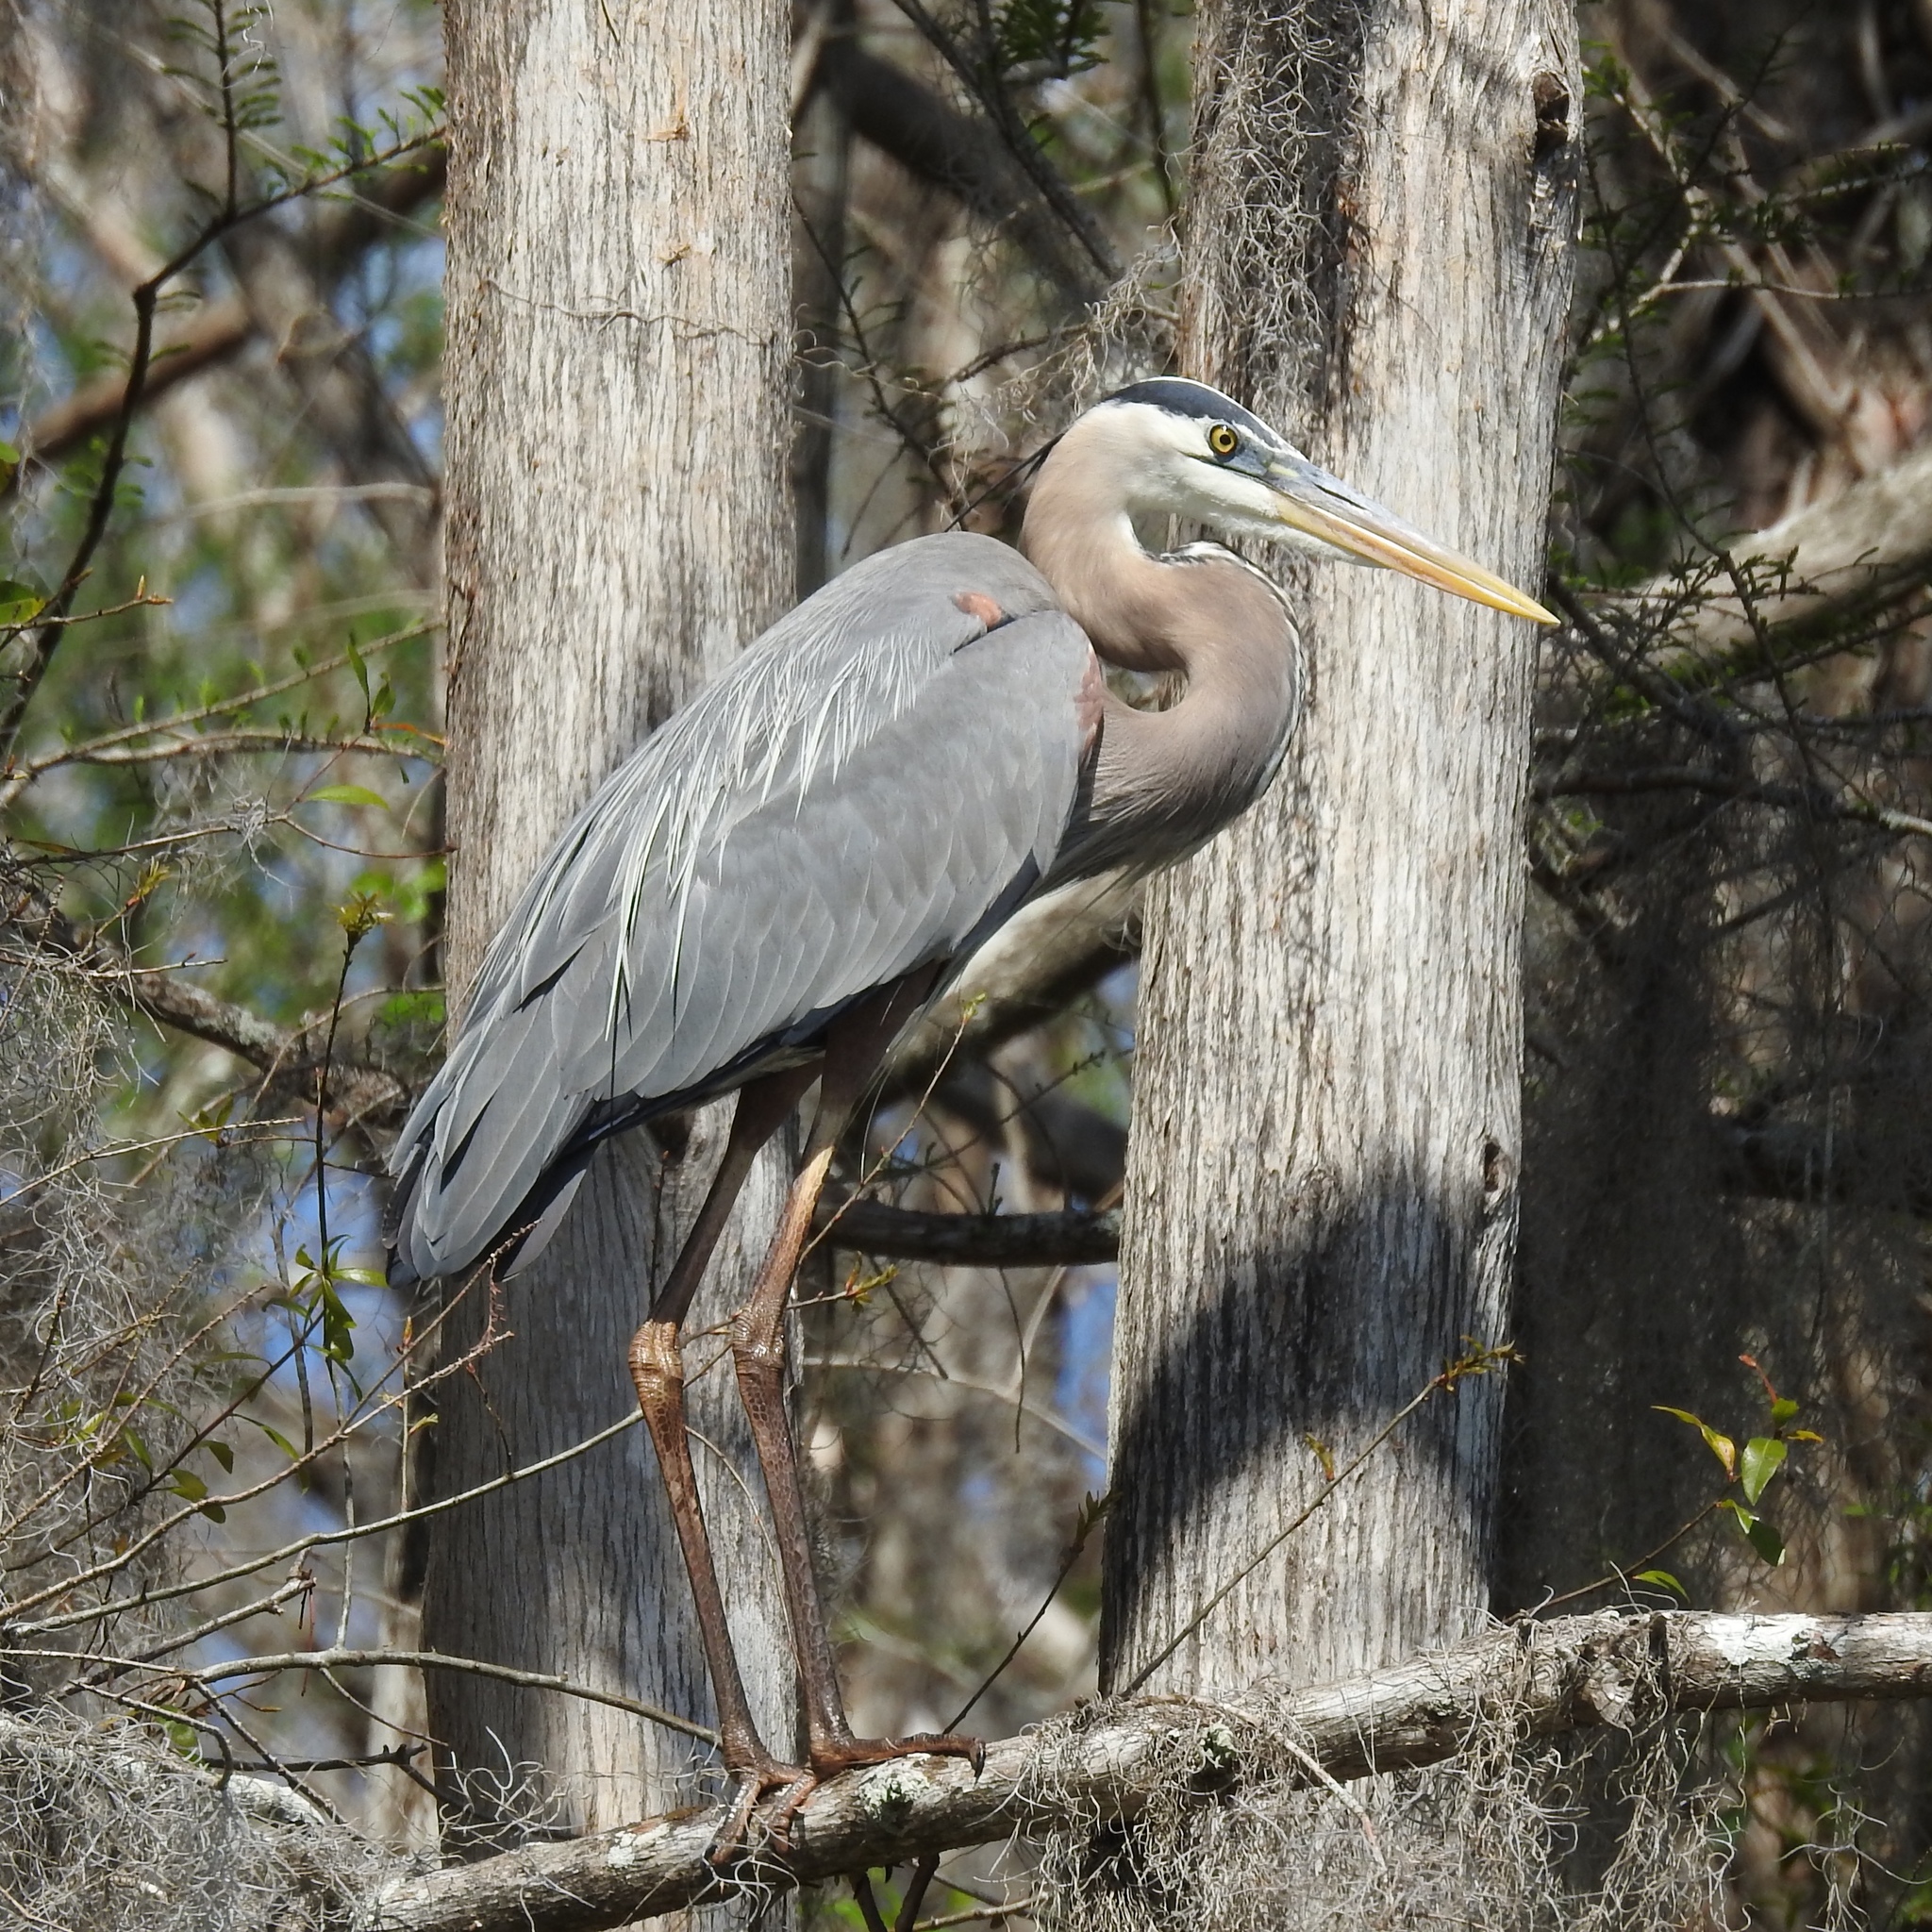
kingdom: Animalia
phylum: Chordata
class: Aves
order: Pelecaniformes
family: Ardeidae
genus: Ardea
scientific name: Ardea herodias
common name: Great blue heron
